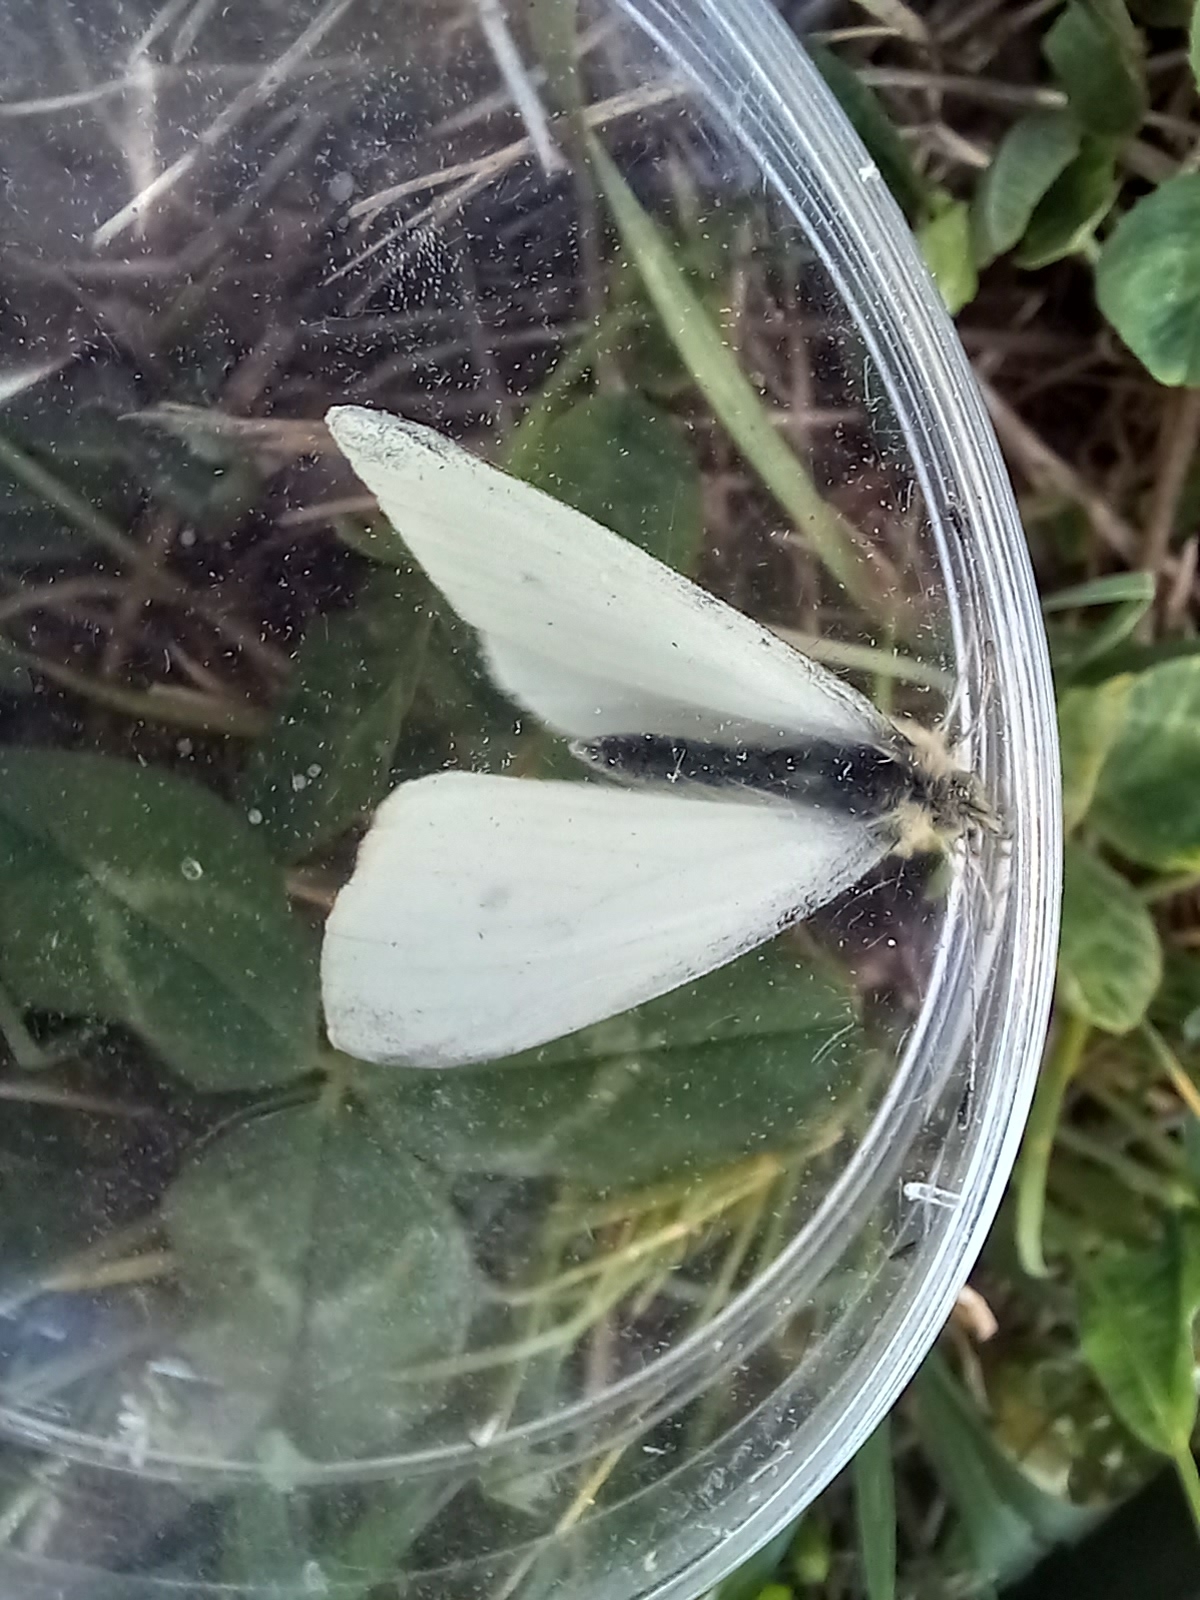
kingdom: Animalia
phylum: Arthropoda
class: Insecta
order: Lepidoptera
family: Pieridae
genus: Pieris
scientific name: Pieris rapae
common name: Small white
